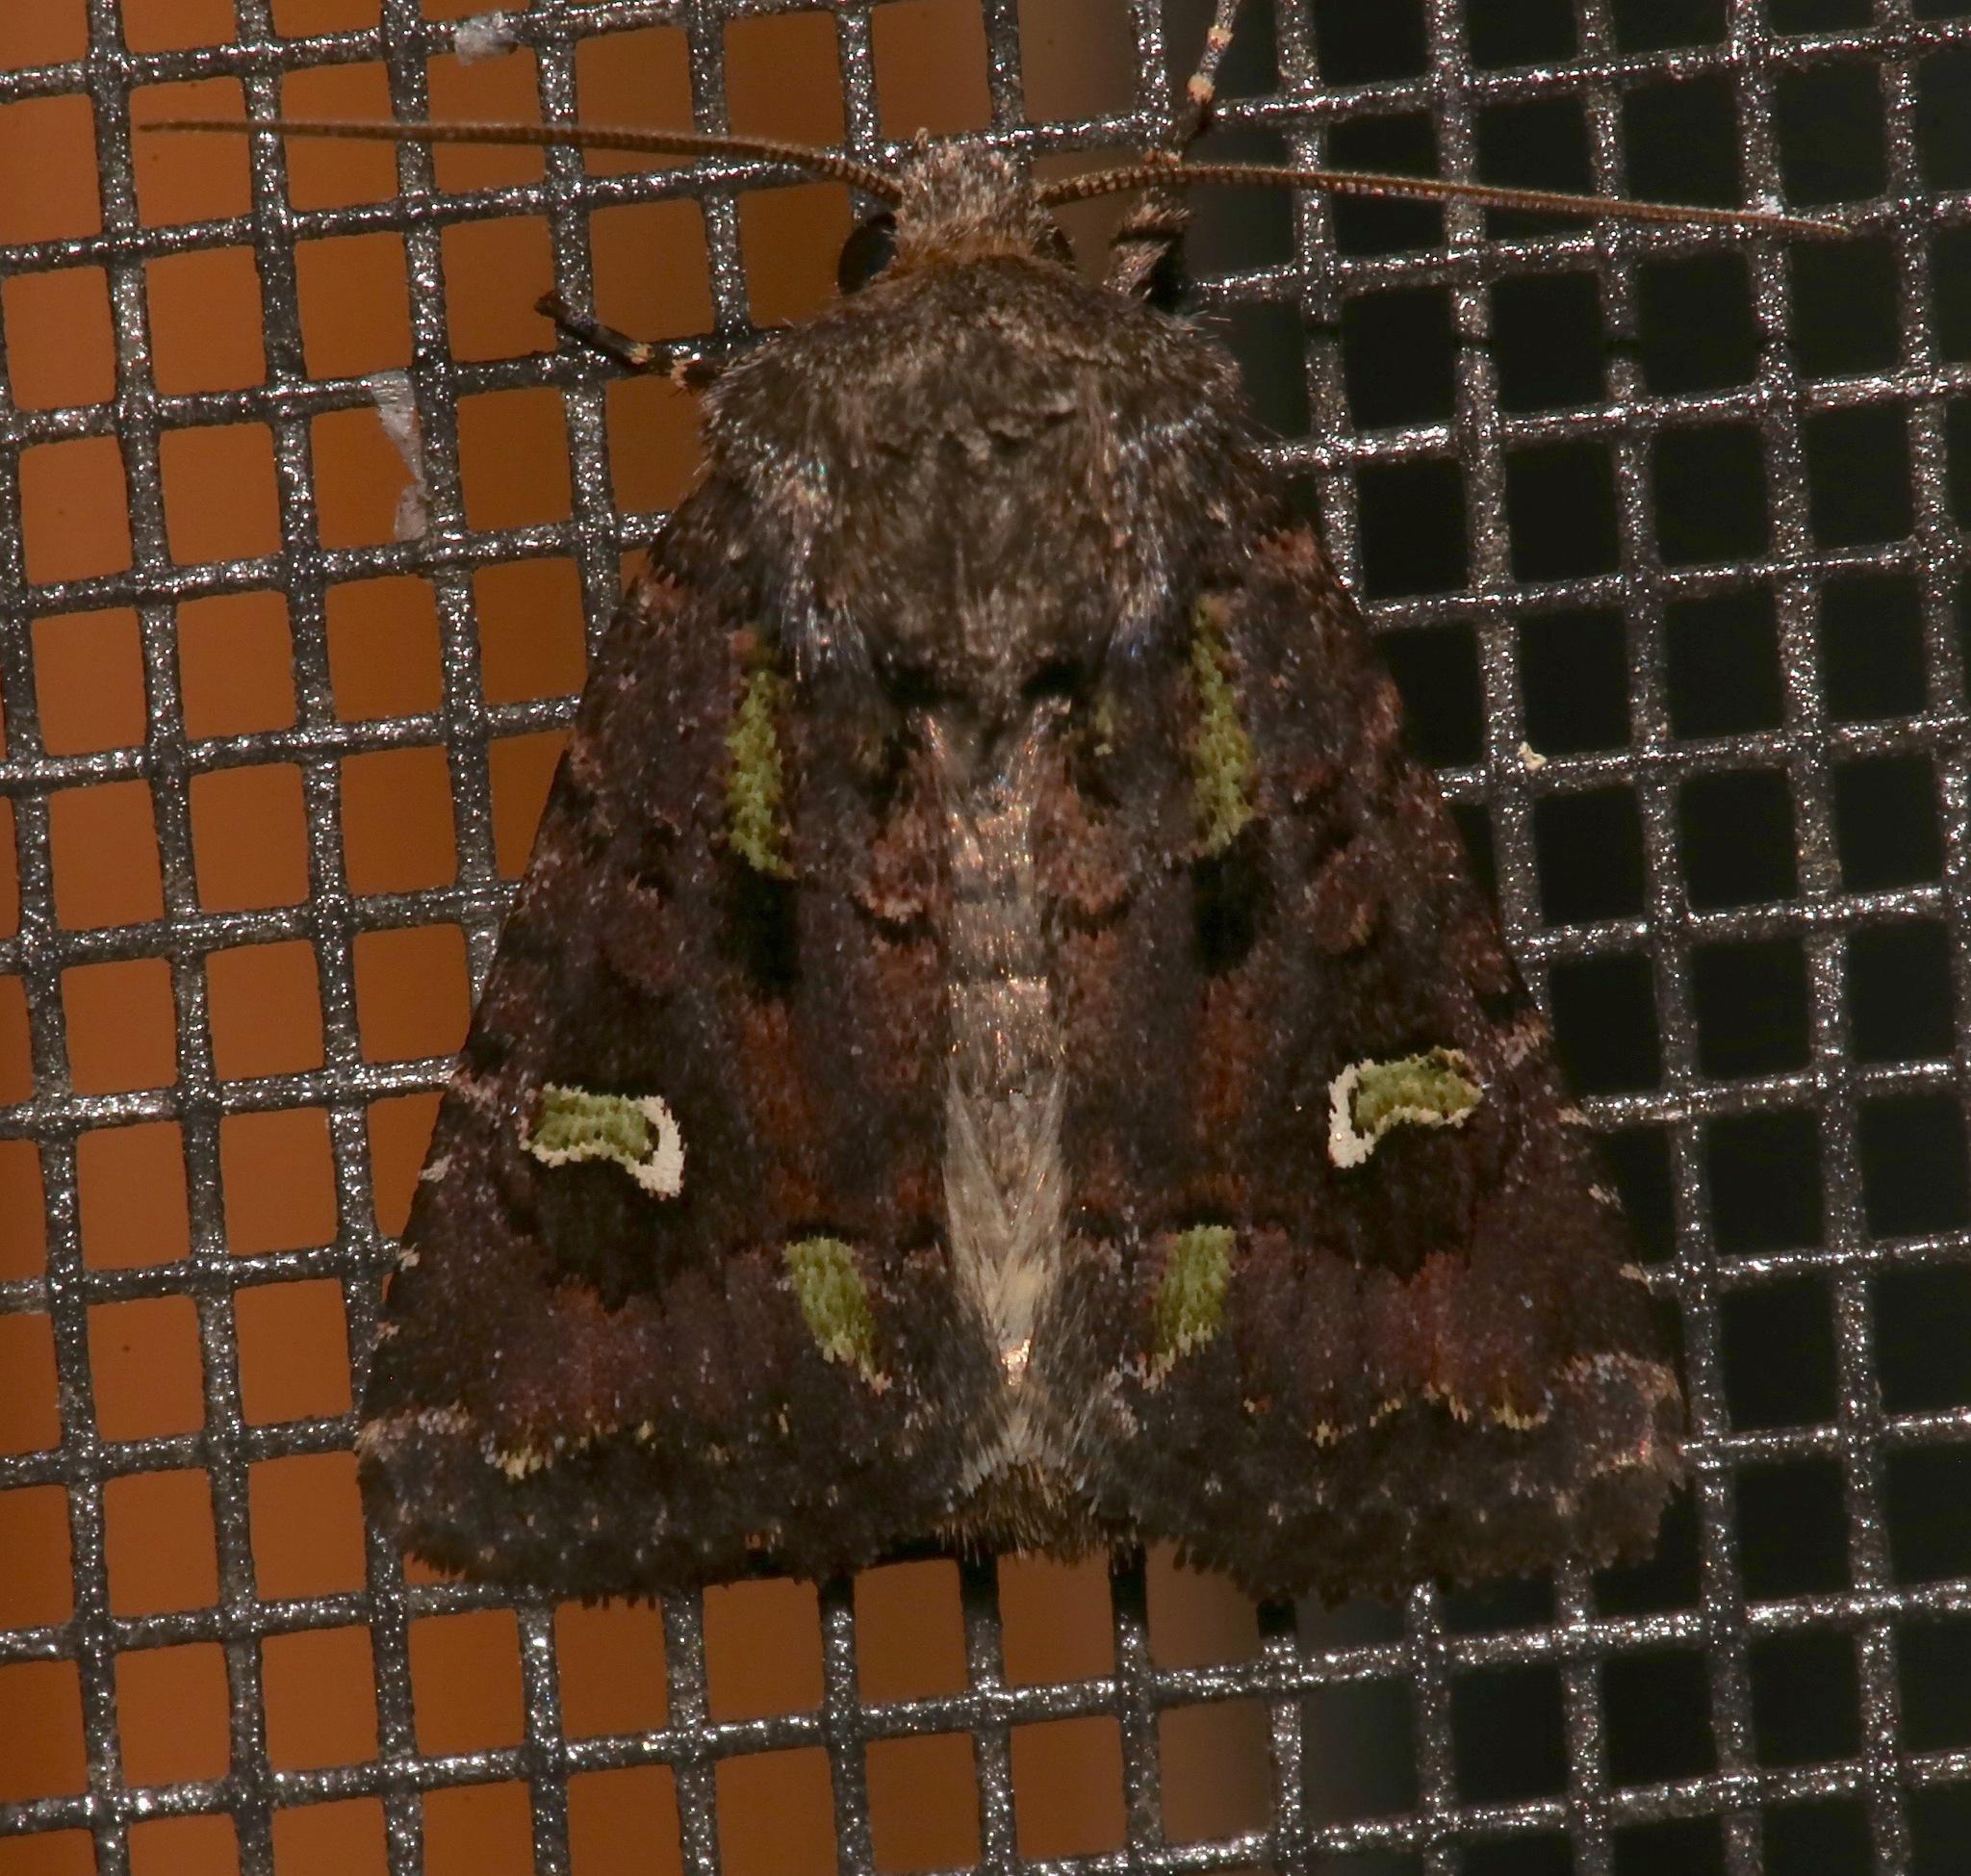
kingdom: Animalia
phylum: Arthropoda
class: Insecta
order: Lepidoptera
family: Noctuidae
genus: Lacinipolia
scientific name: Lacinipolia renigera
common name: Kidney-spotted minor
